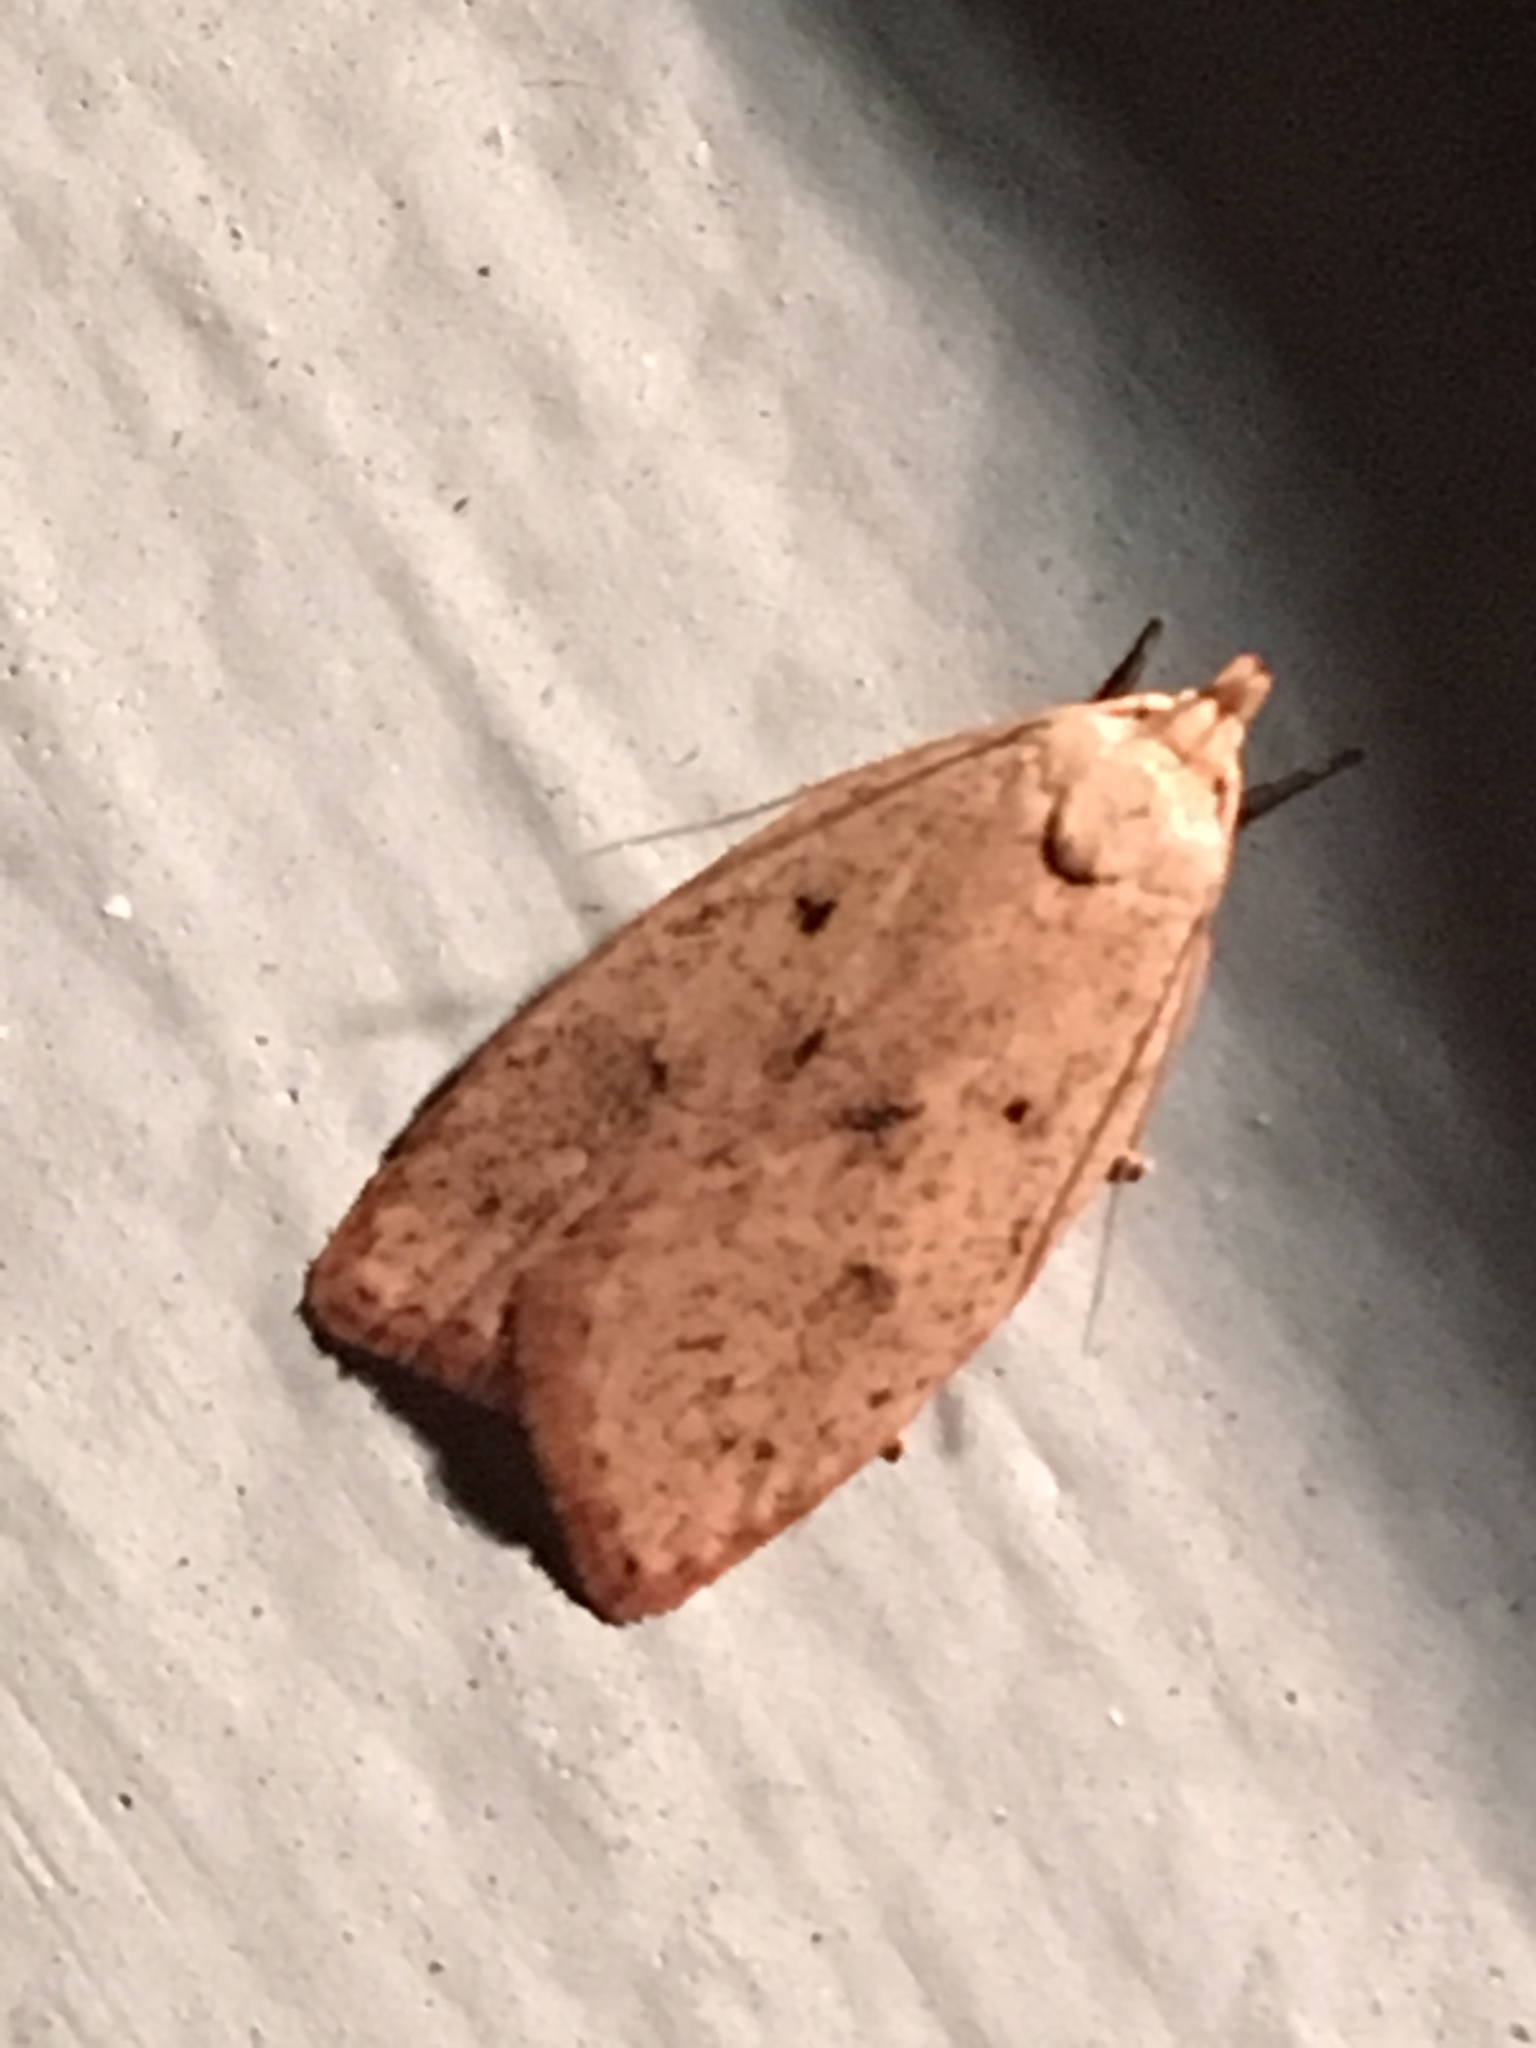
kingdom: Animalia
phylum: Arthropoda
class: Insecta
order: Lepidoptera
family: Peleopodidae
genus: Machimia
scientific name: Machimia tentoriferella
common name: Gold-striped leaftier moth
